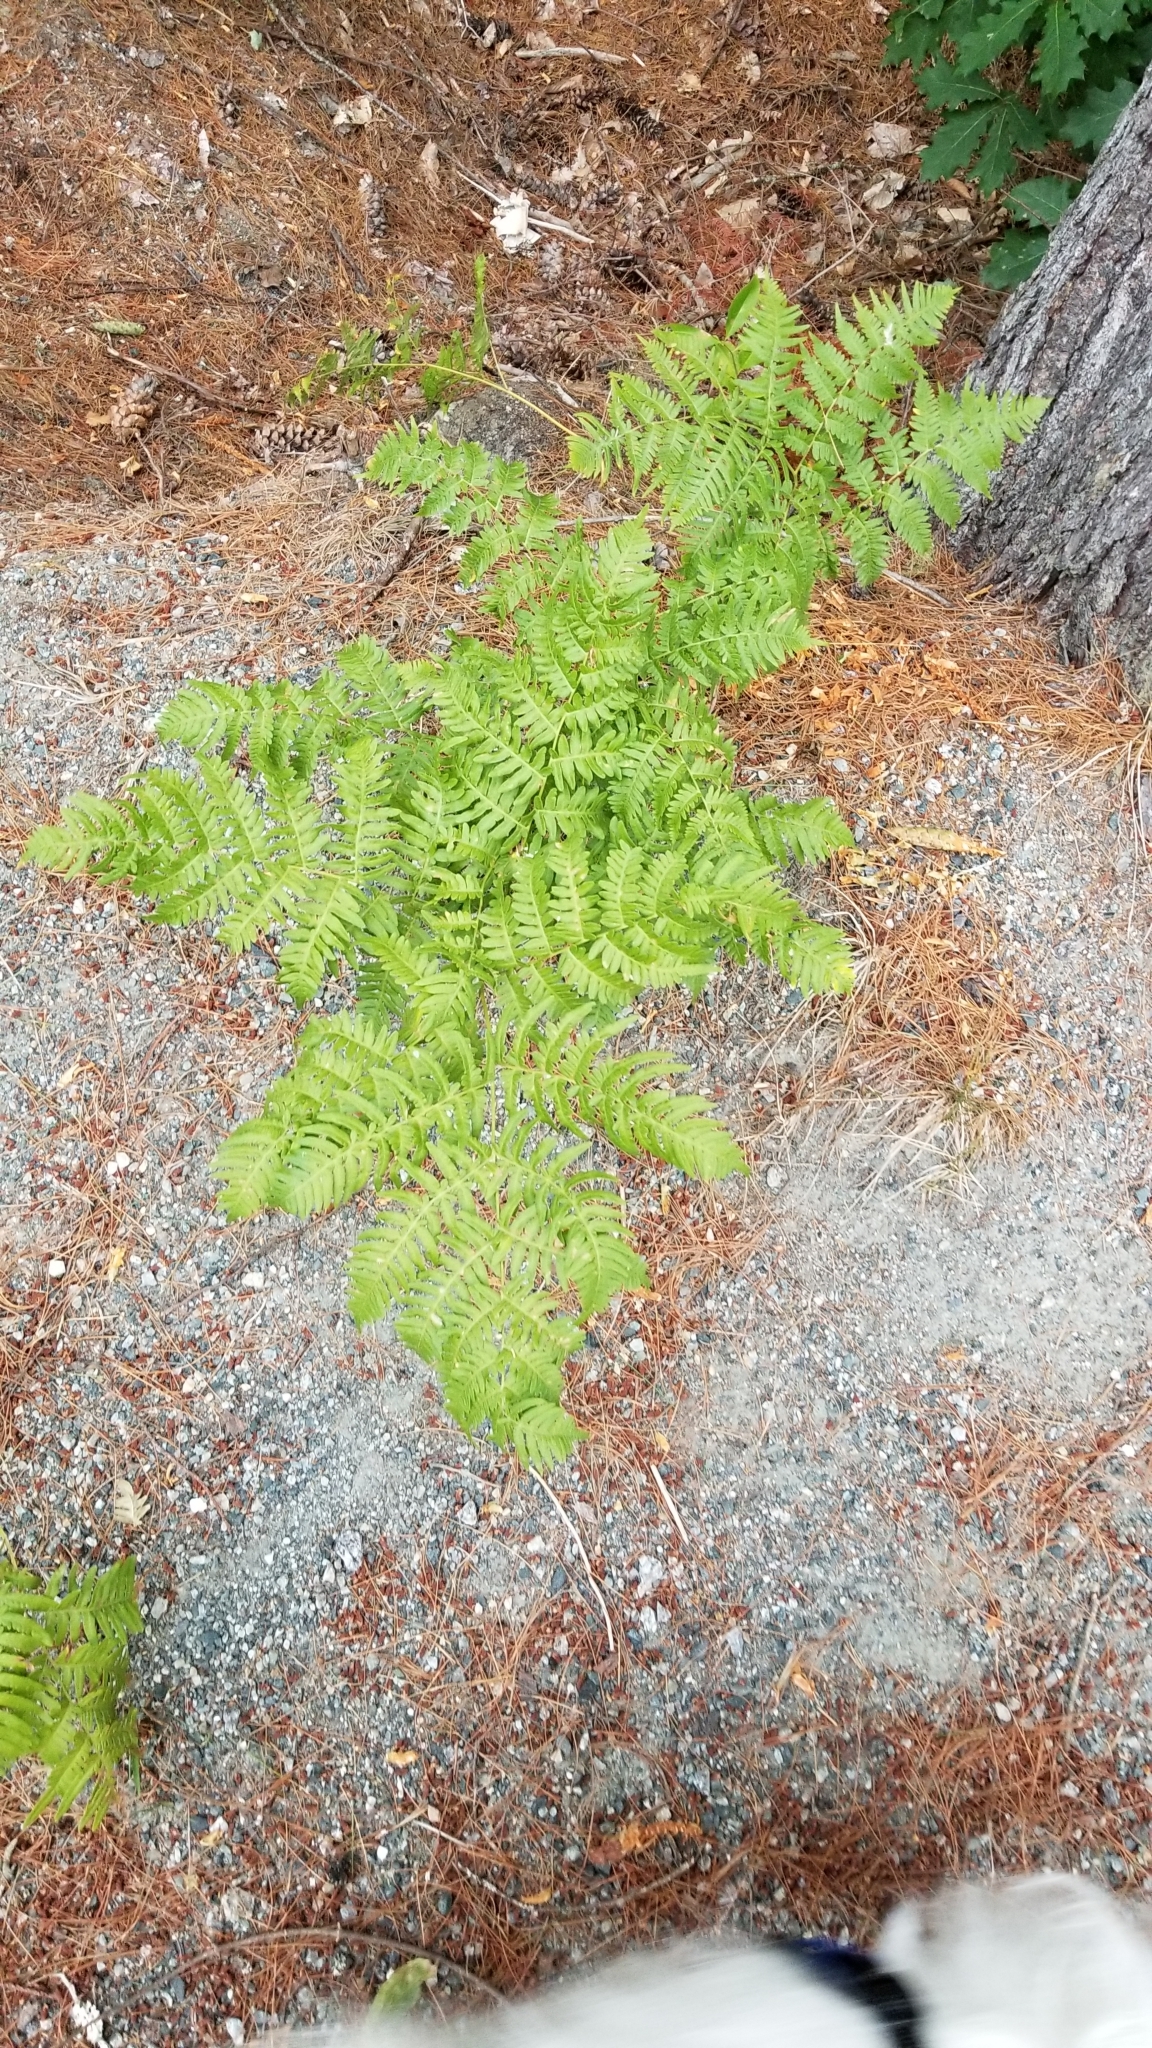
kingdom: Plantae
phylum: Tracheophyta
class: Polypodiopsida
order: Polypodiales
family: Dennstaedtiaceae
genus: Pteridium
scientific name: Pteridium aquilinum
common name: Bracken
